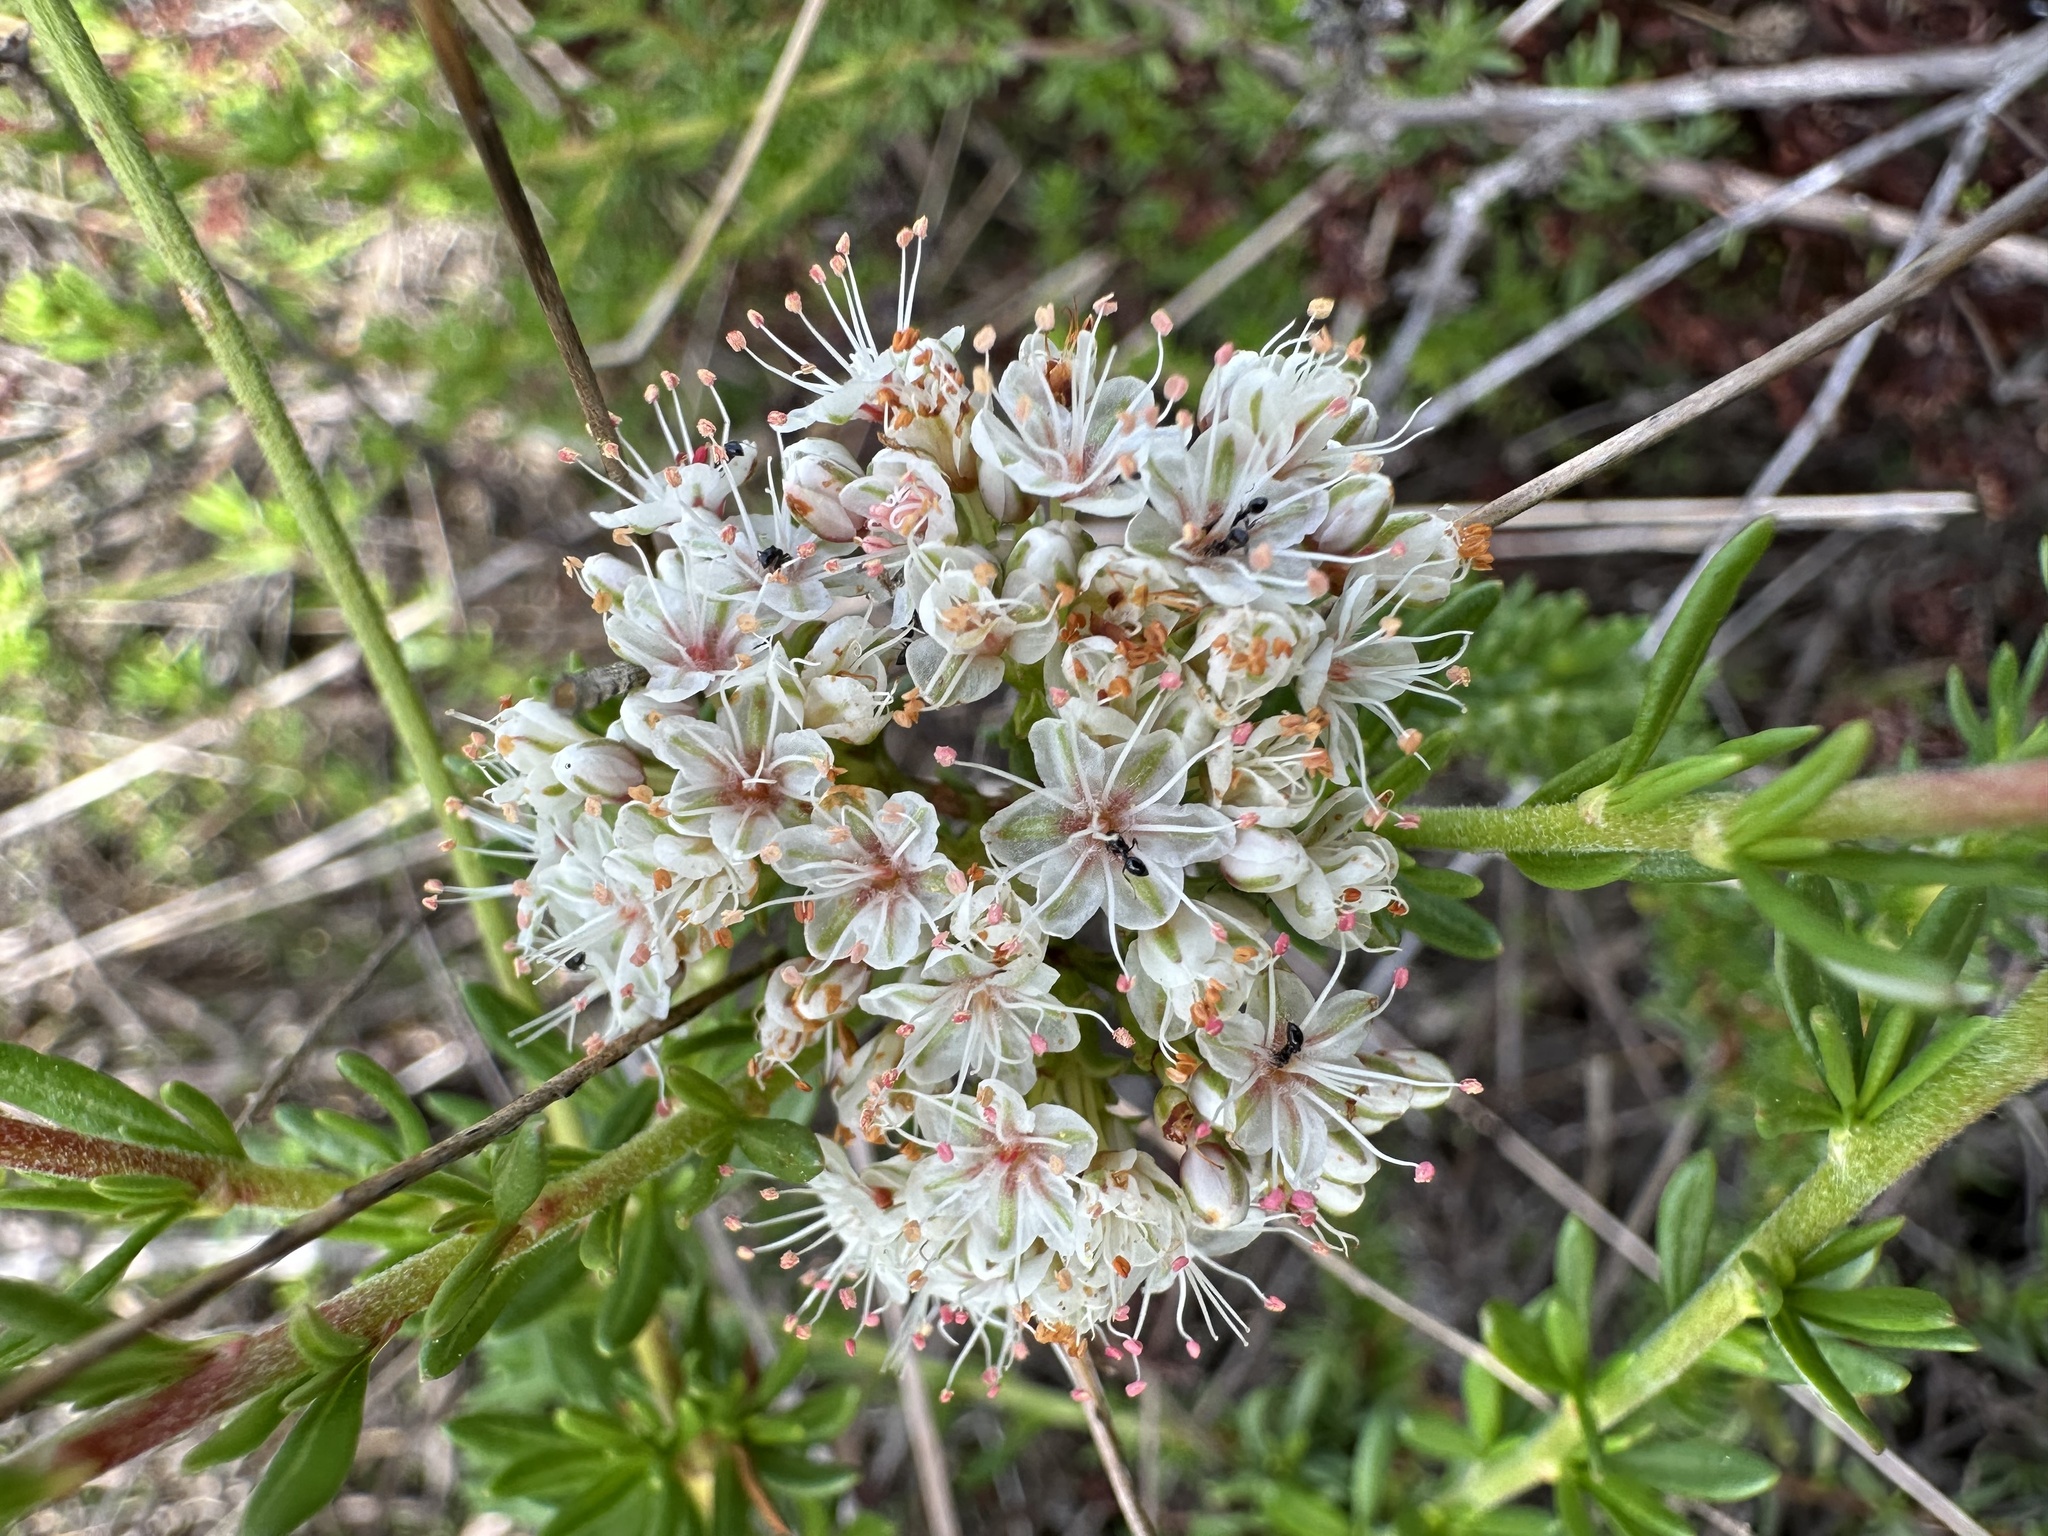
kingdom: Plantae
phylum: Tracheophyta
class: Magnoliopsida
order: Caryophyllales
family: Polygonaceae
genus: Eriogonum
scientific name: Eriogonum fasciculatum
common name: California wild buckwheat
